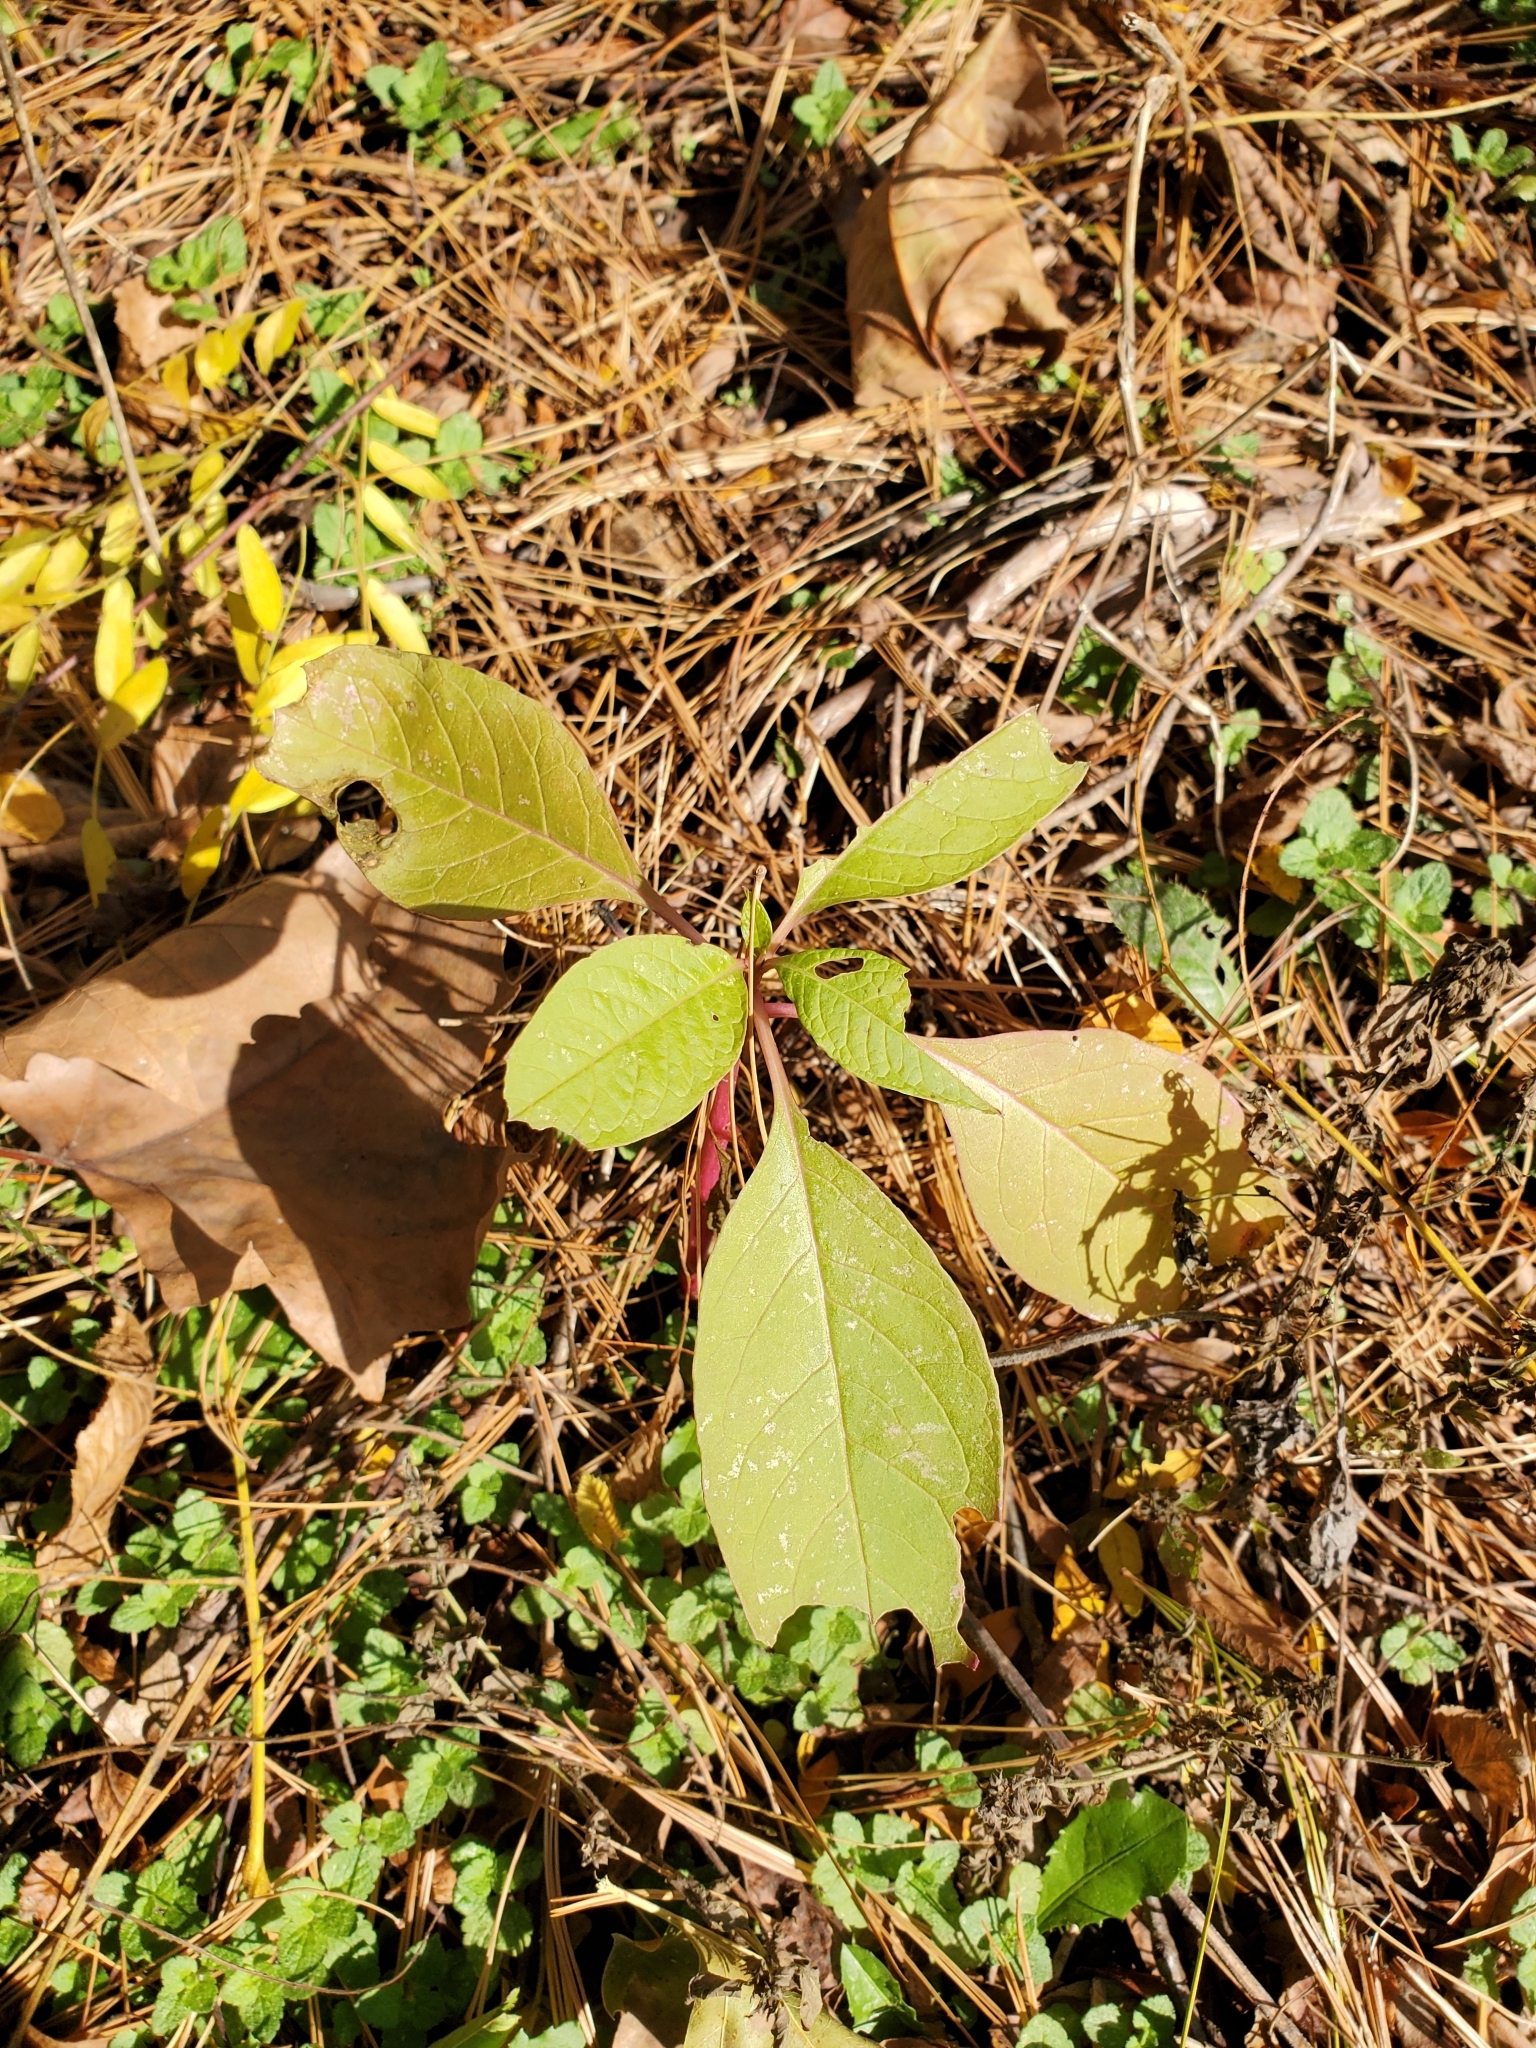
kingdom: Plantae
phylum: Tracheophyta
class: Magnoliopsida
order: Caryophyllales
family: Phytolaccaceae
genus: Phytolacca
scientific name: Phytolacca americana
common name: American pokeweed
